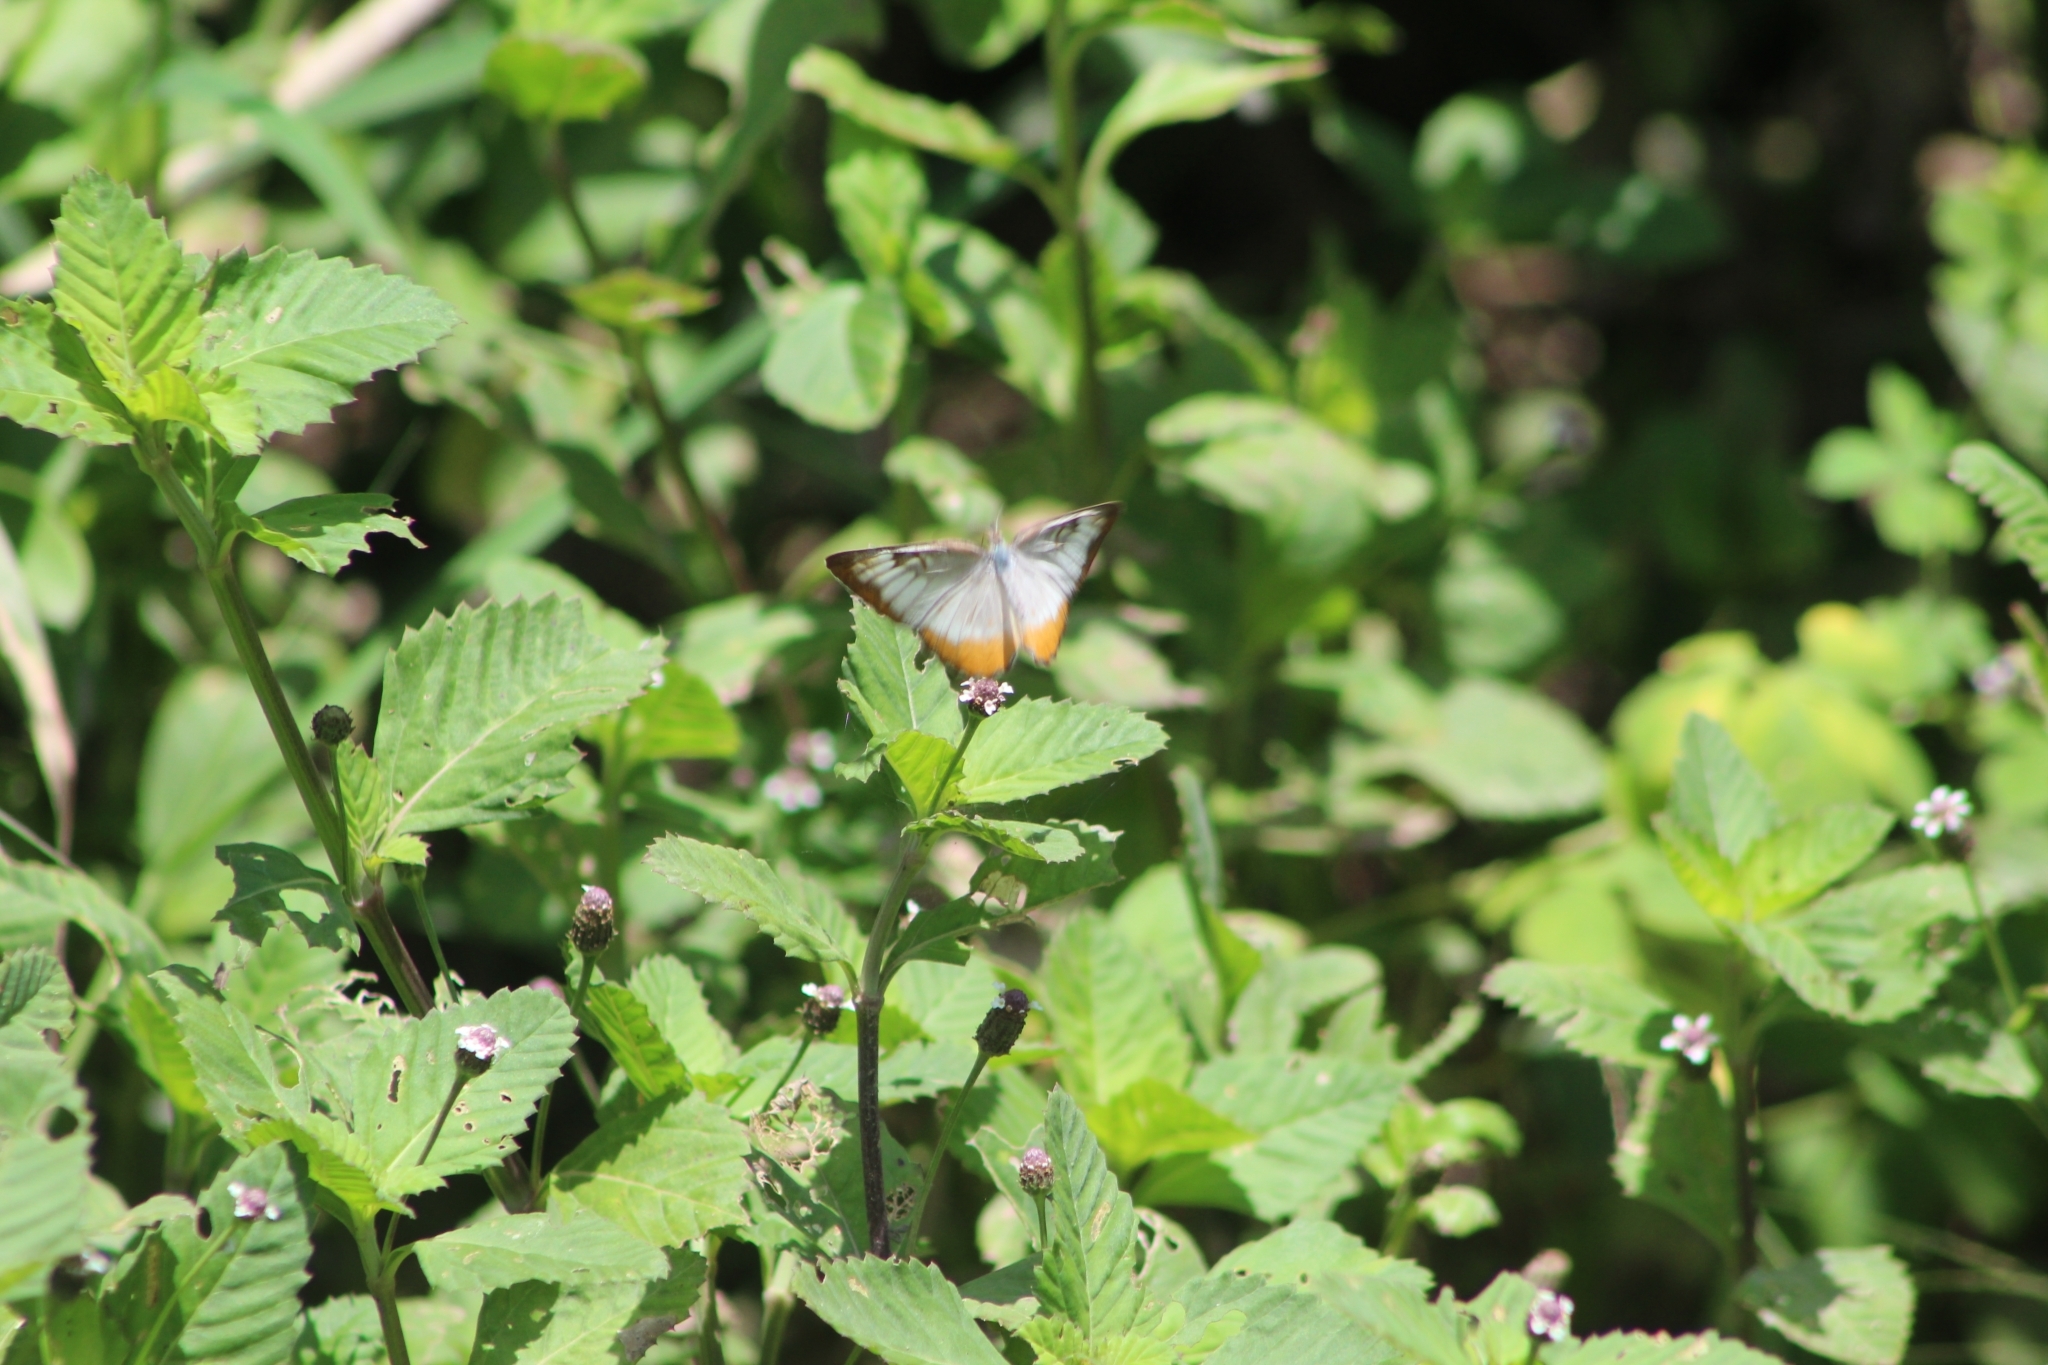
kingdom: Animalia
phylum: Arthropoda
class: Insecta
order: Lepidoptera
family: Nymphalidae
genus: Mestra
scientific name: Mestra amymone
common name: Common mestra
